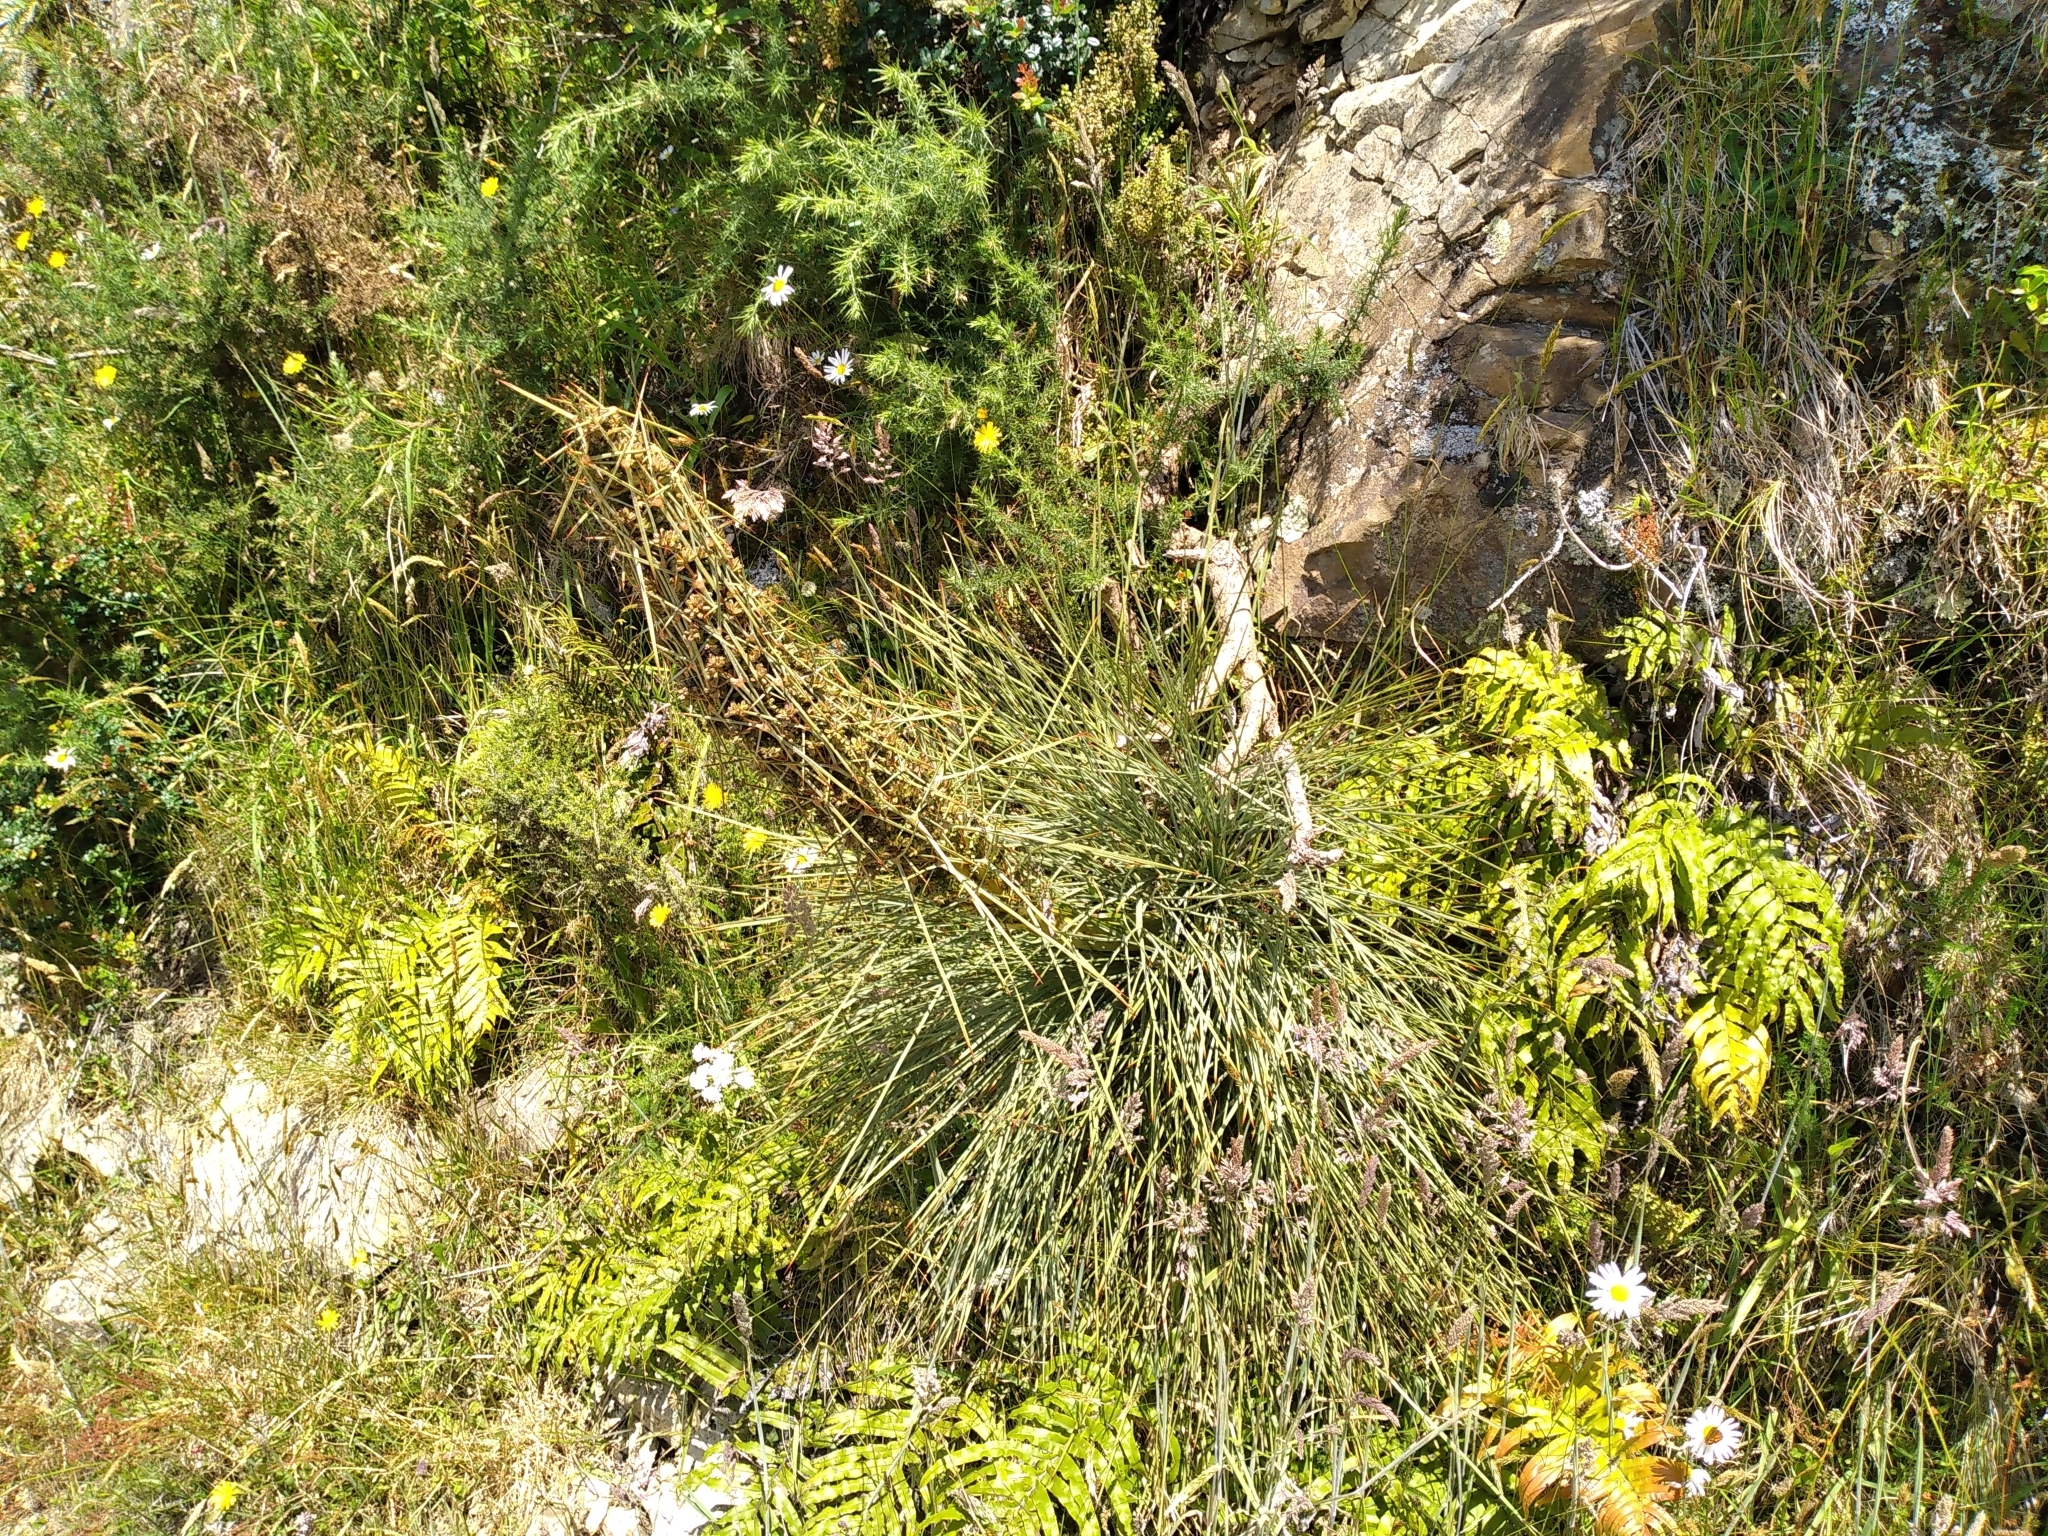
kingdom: Plantae
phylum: Tracheophyta
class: Magnoliopsida
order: Apiales
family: Apiaceae
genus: Aciphylla
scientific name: Aciphylla squarrosa
